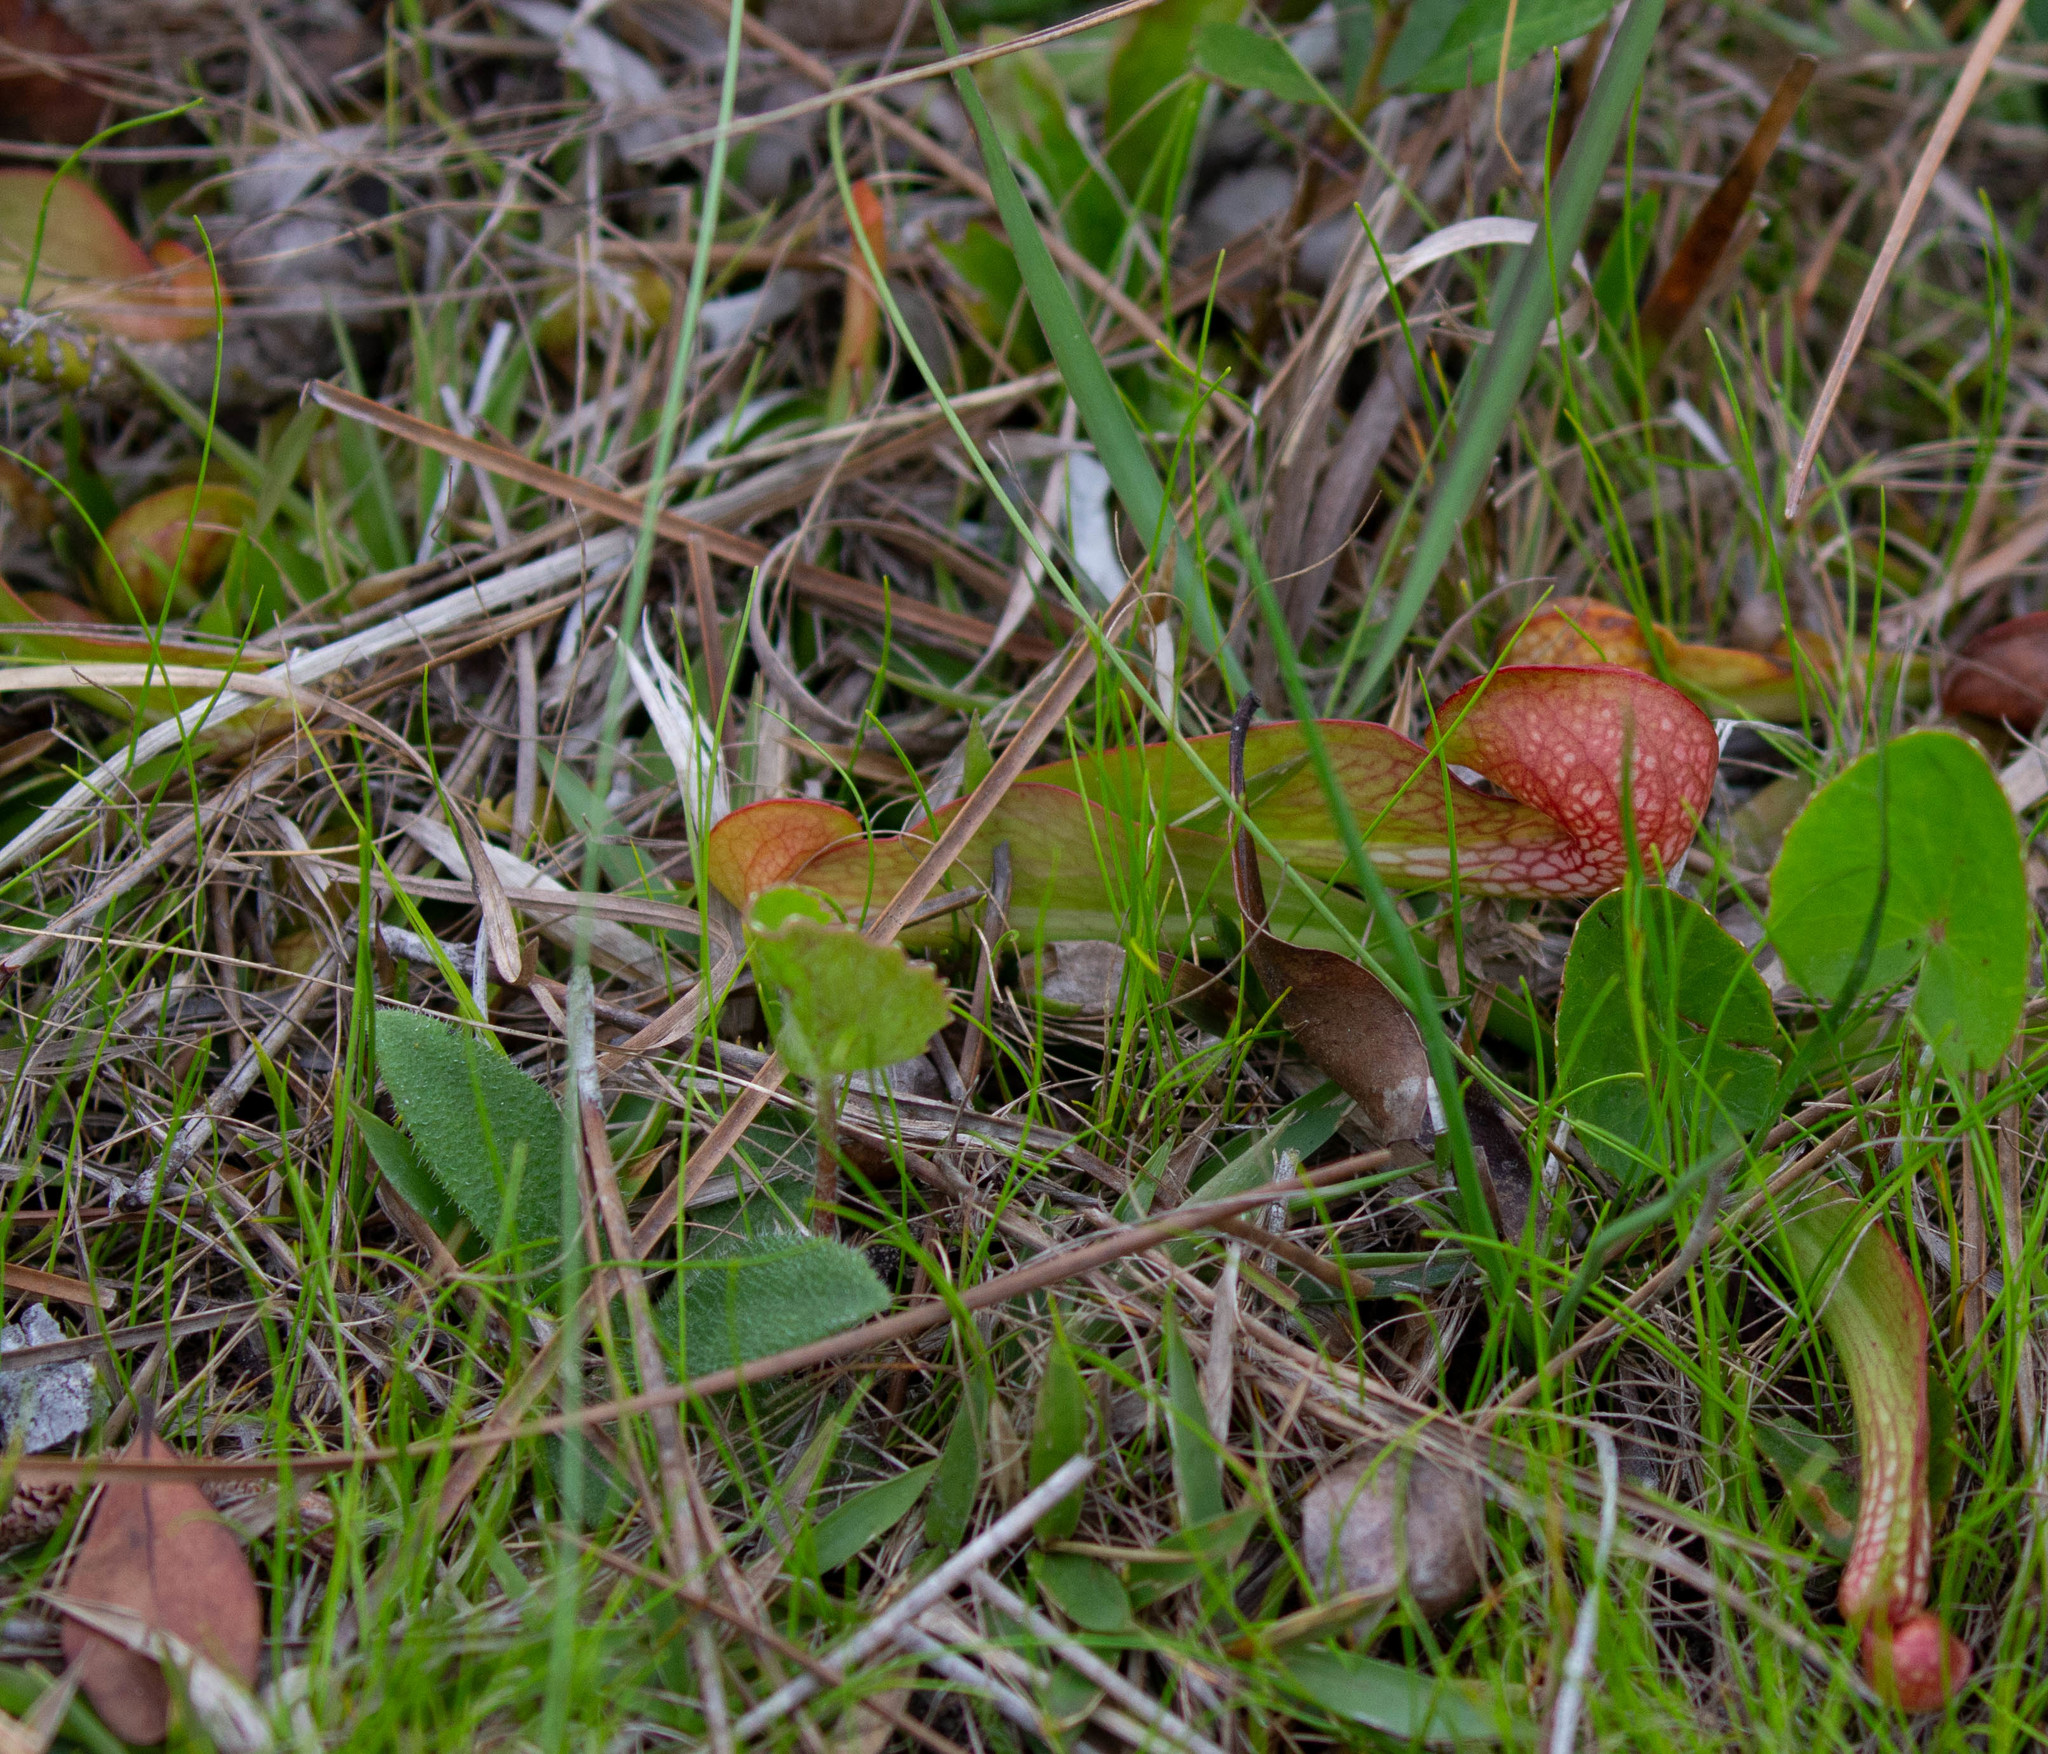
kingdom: Plantae
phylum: Tracheophyta
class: Magnoliopsida
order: Ericales
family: Sarraceniaceae
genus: Sarracenia
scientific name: Sarracenia psittacina
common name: Parrot pitcherplant
